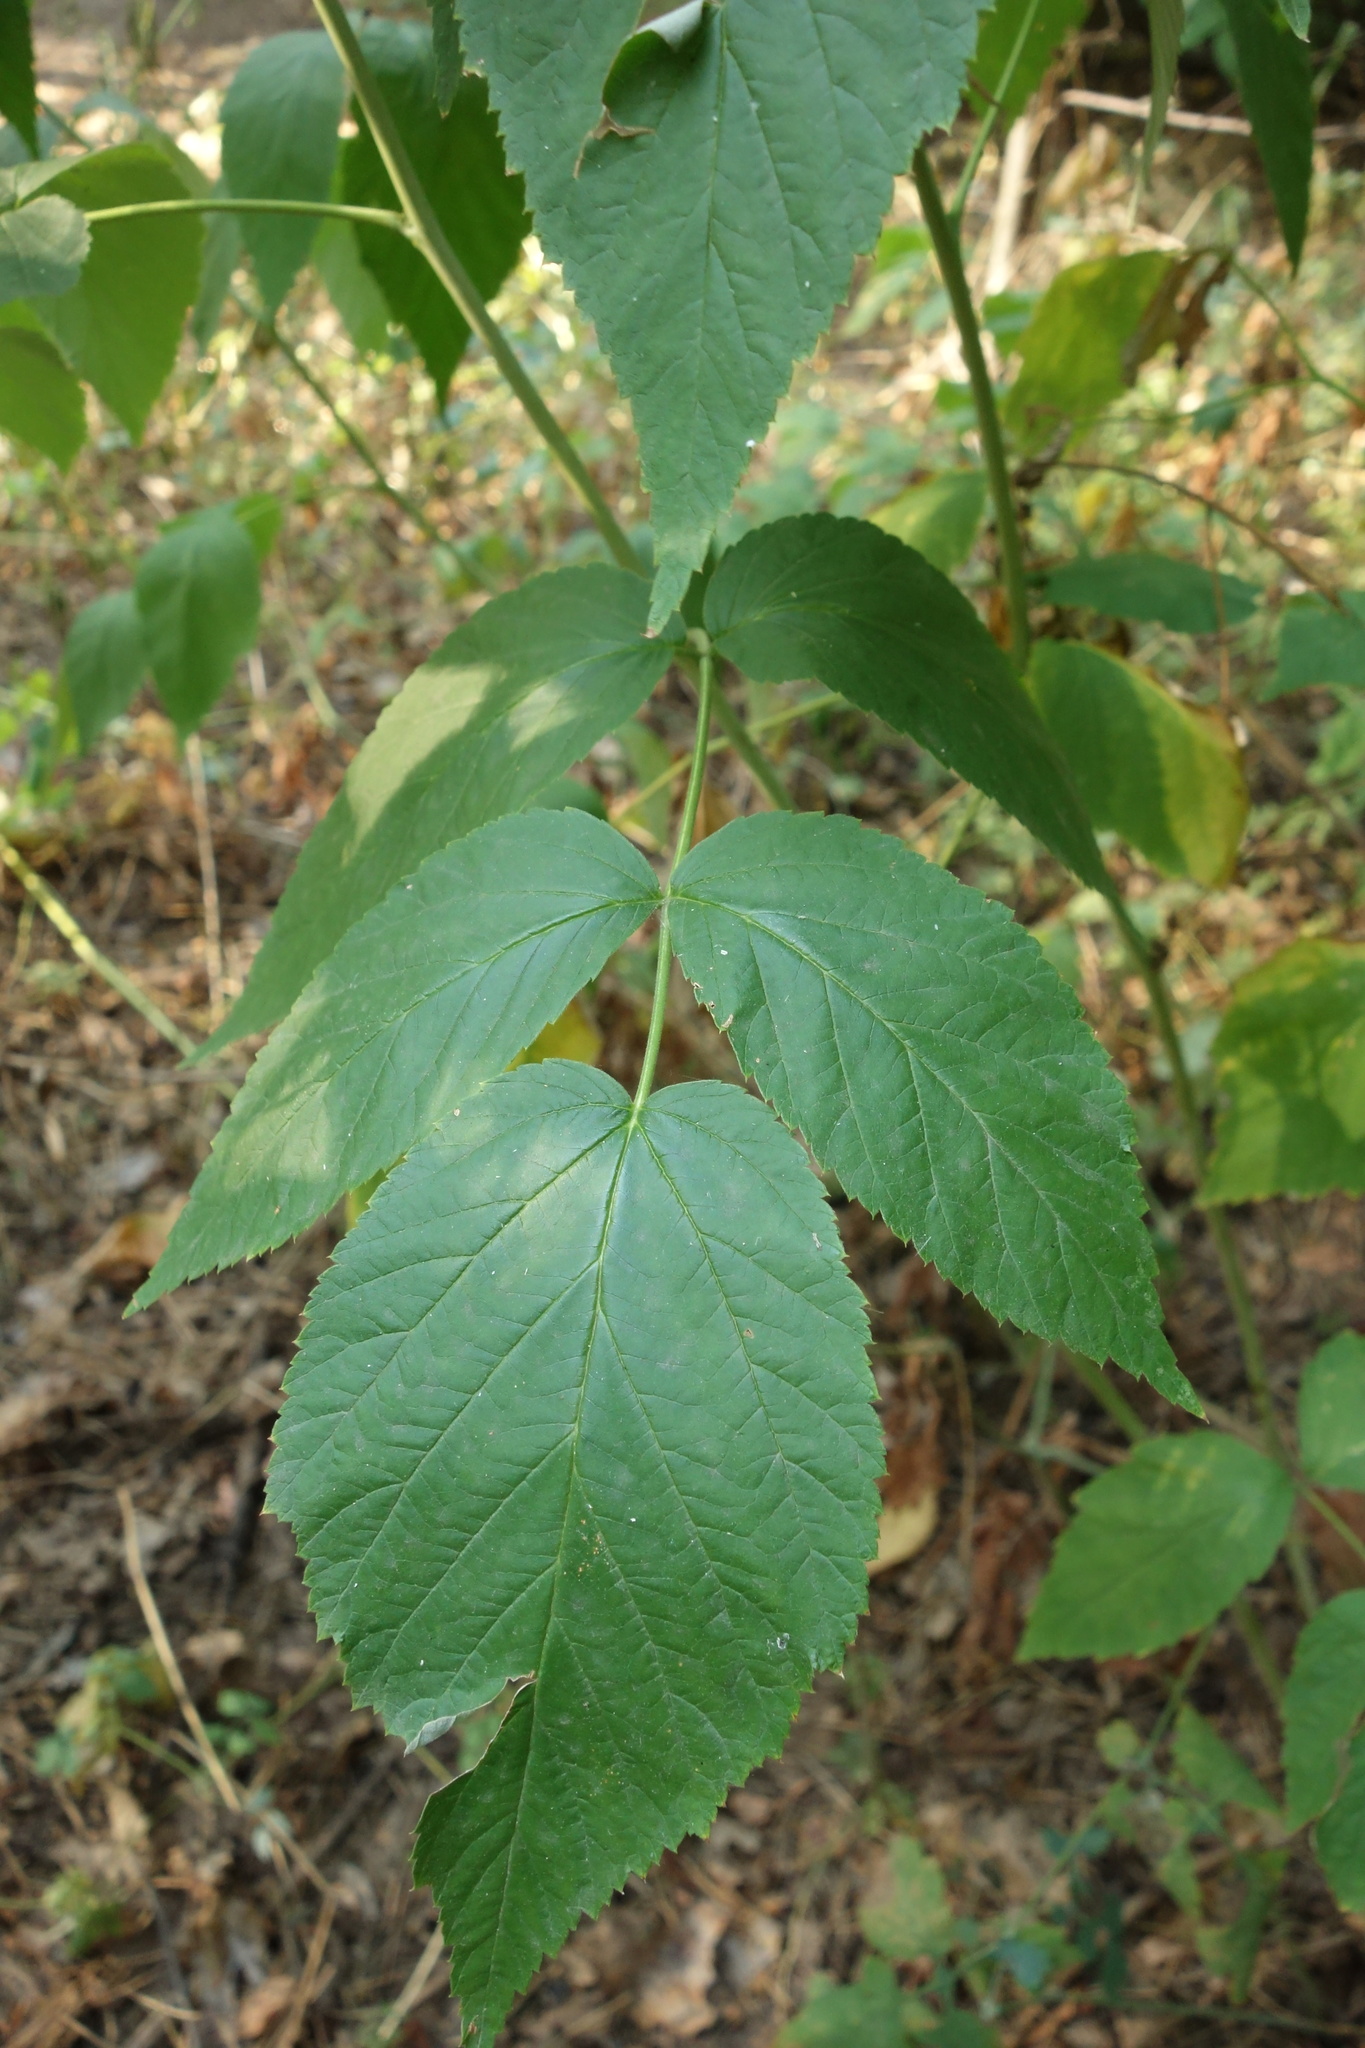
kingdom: Plantae
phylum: Tracheophyta
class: Magnoliopsida
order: Rosales
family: Rosaceae
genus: Rubus
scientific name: Rubus idaeus
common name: Raspberry
